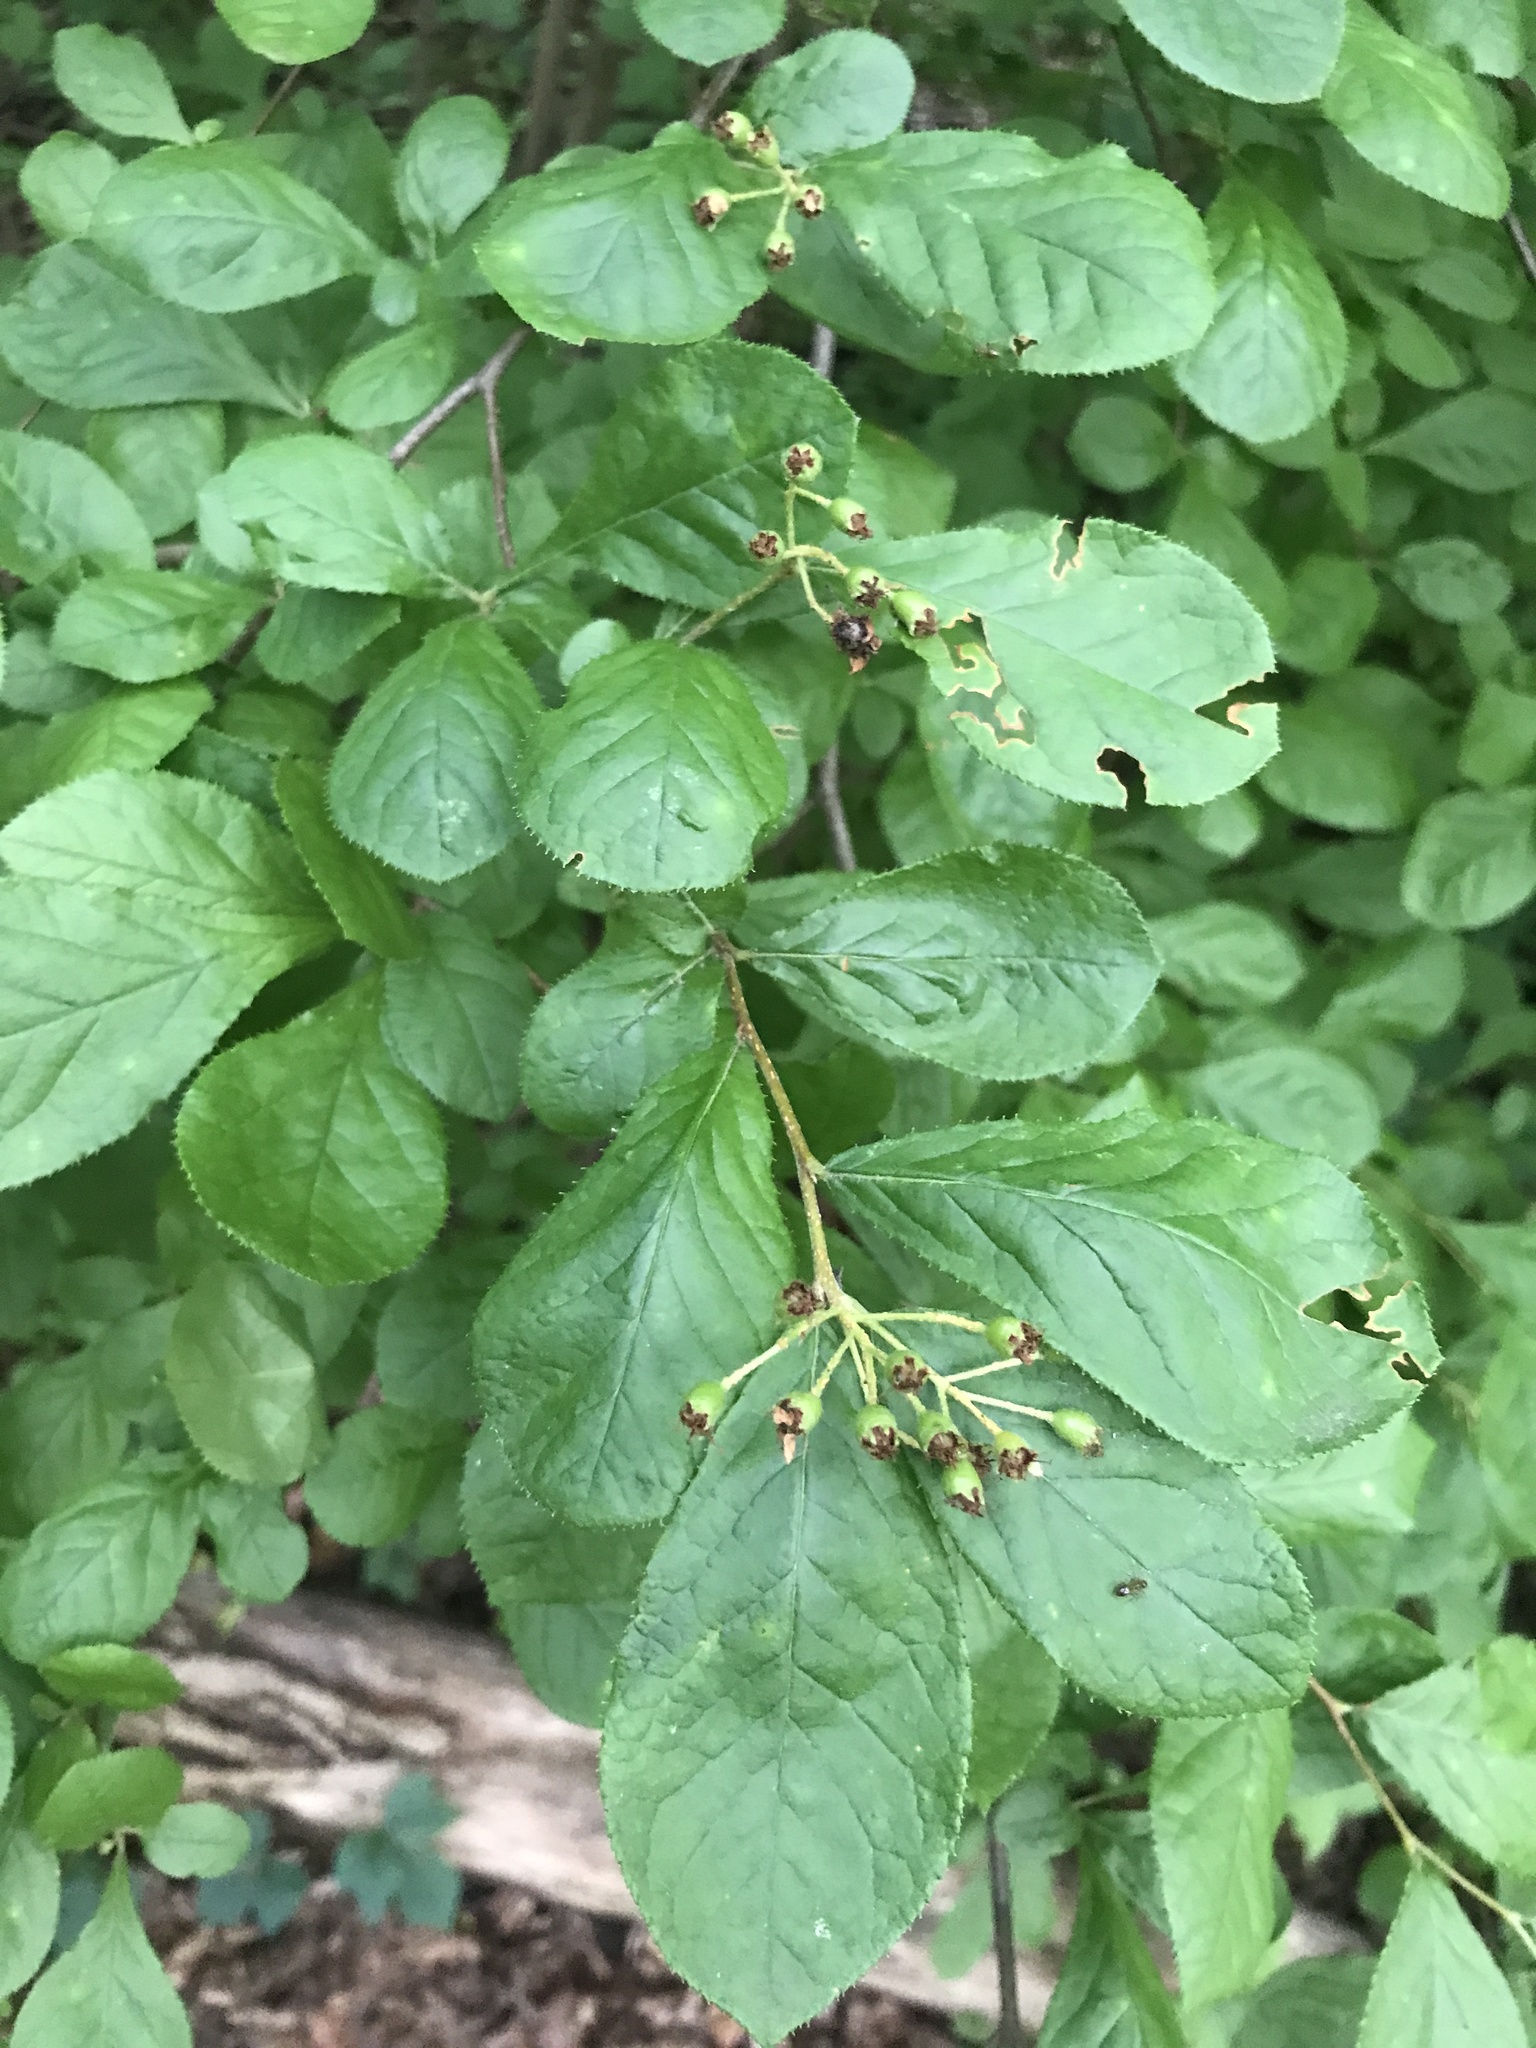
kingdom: Plantae
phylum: Tracheophyta
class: Magnoliopsida
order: Rosales
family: Rosaceae
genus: Pourthiaea
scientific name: Pourthiaea villosa
